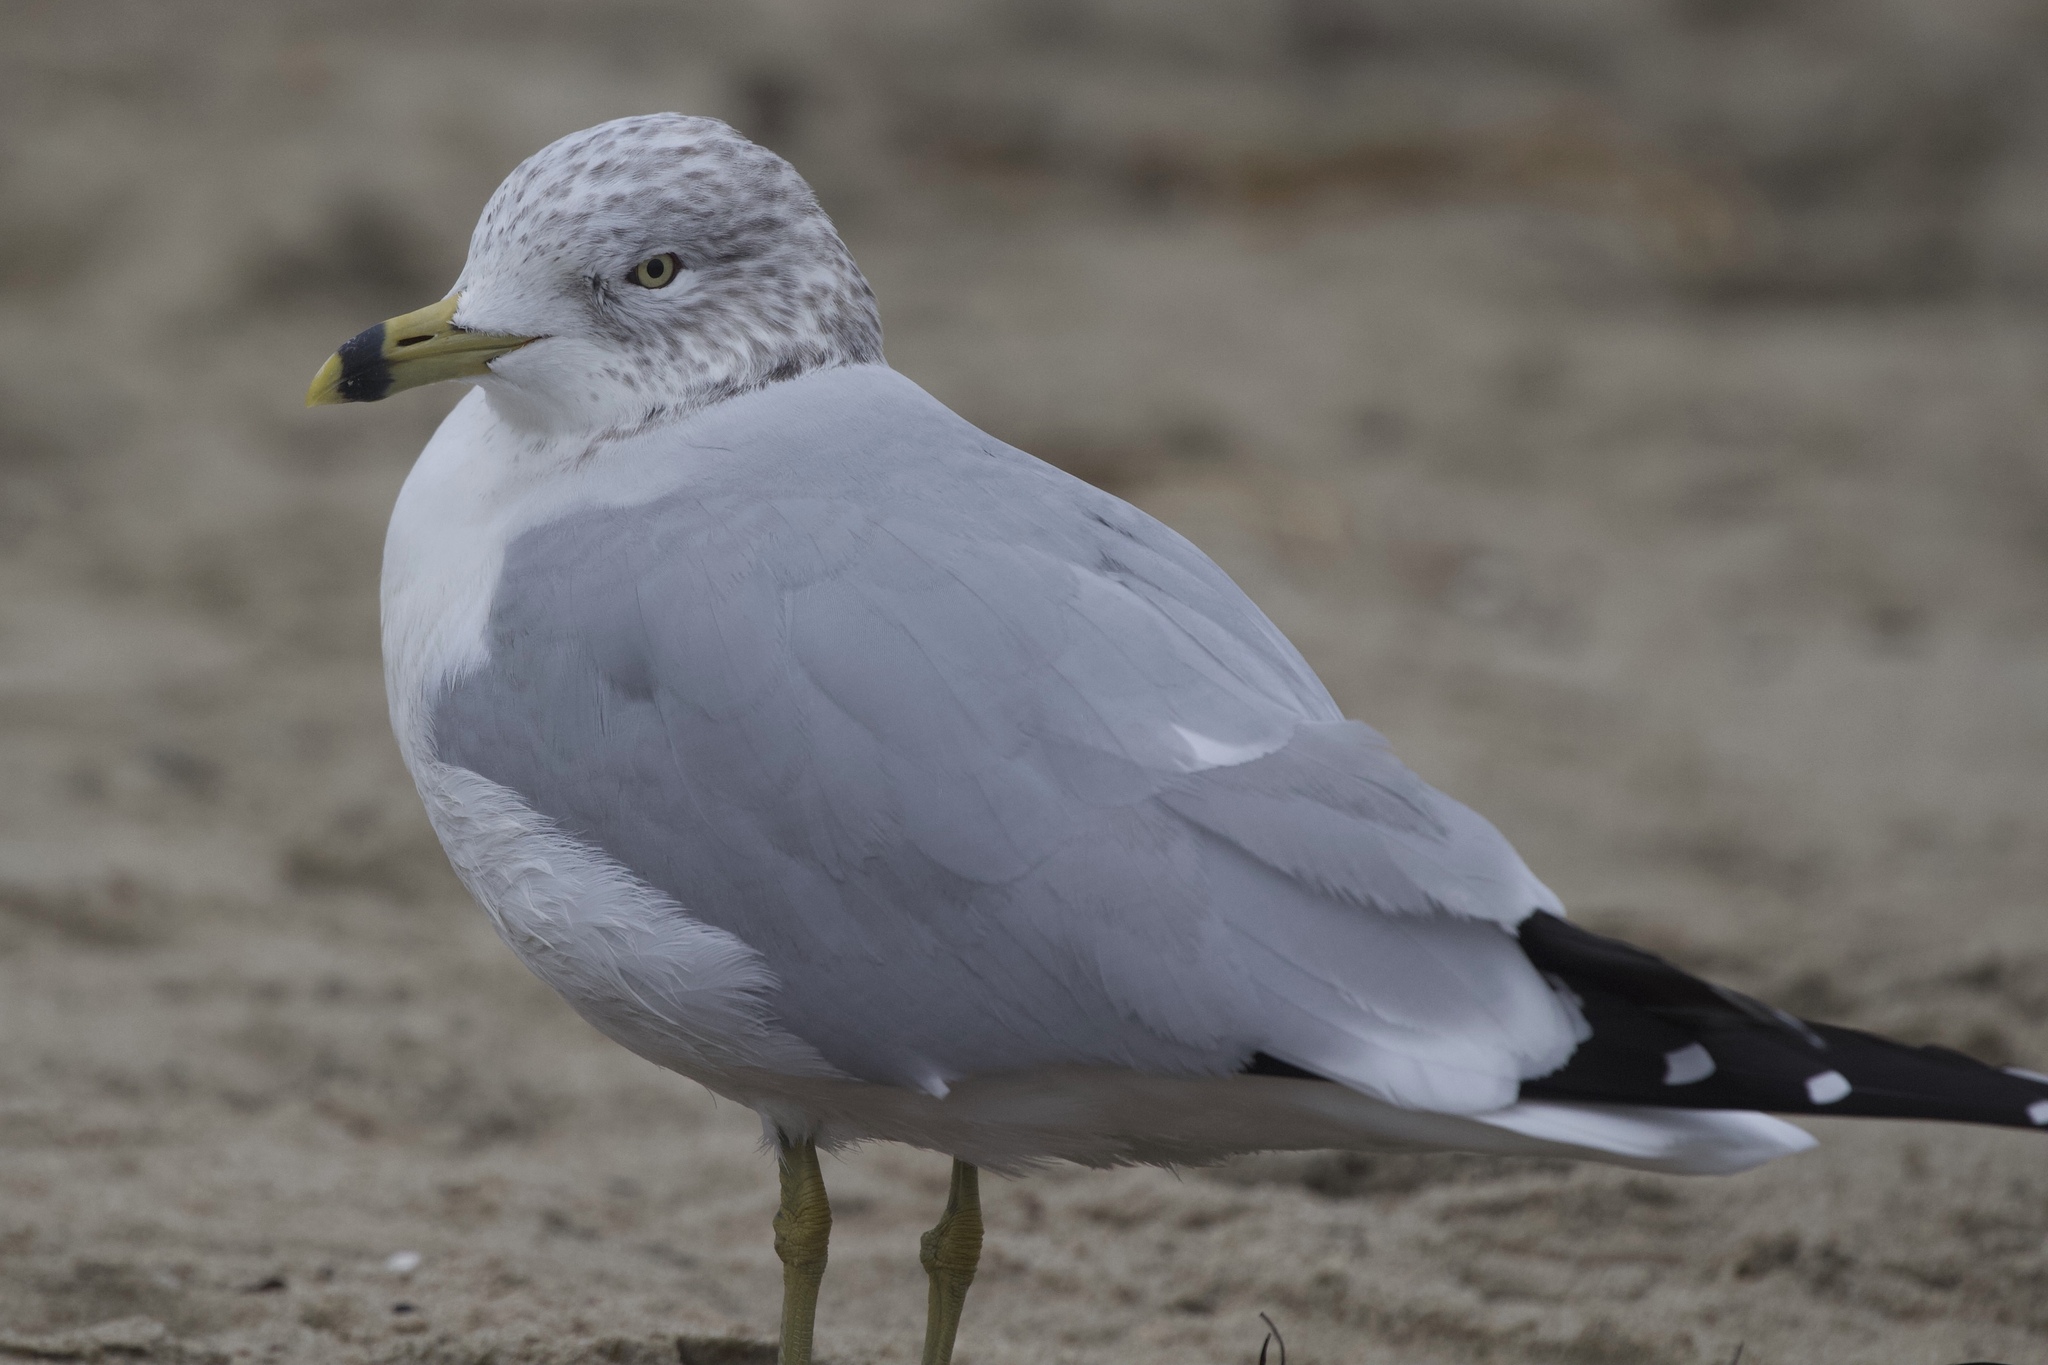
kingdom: Animalia
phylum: Chordata
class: Aves
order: Charadriiformes
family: Laridae
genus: Larus
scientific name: Larus delawarensis
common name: Ring-billed gull
